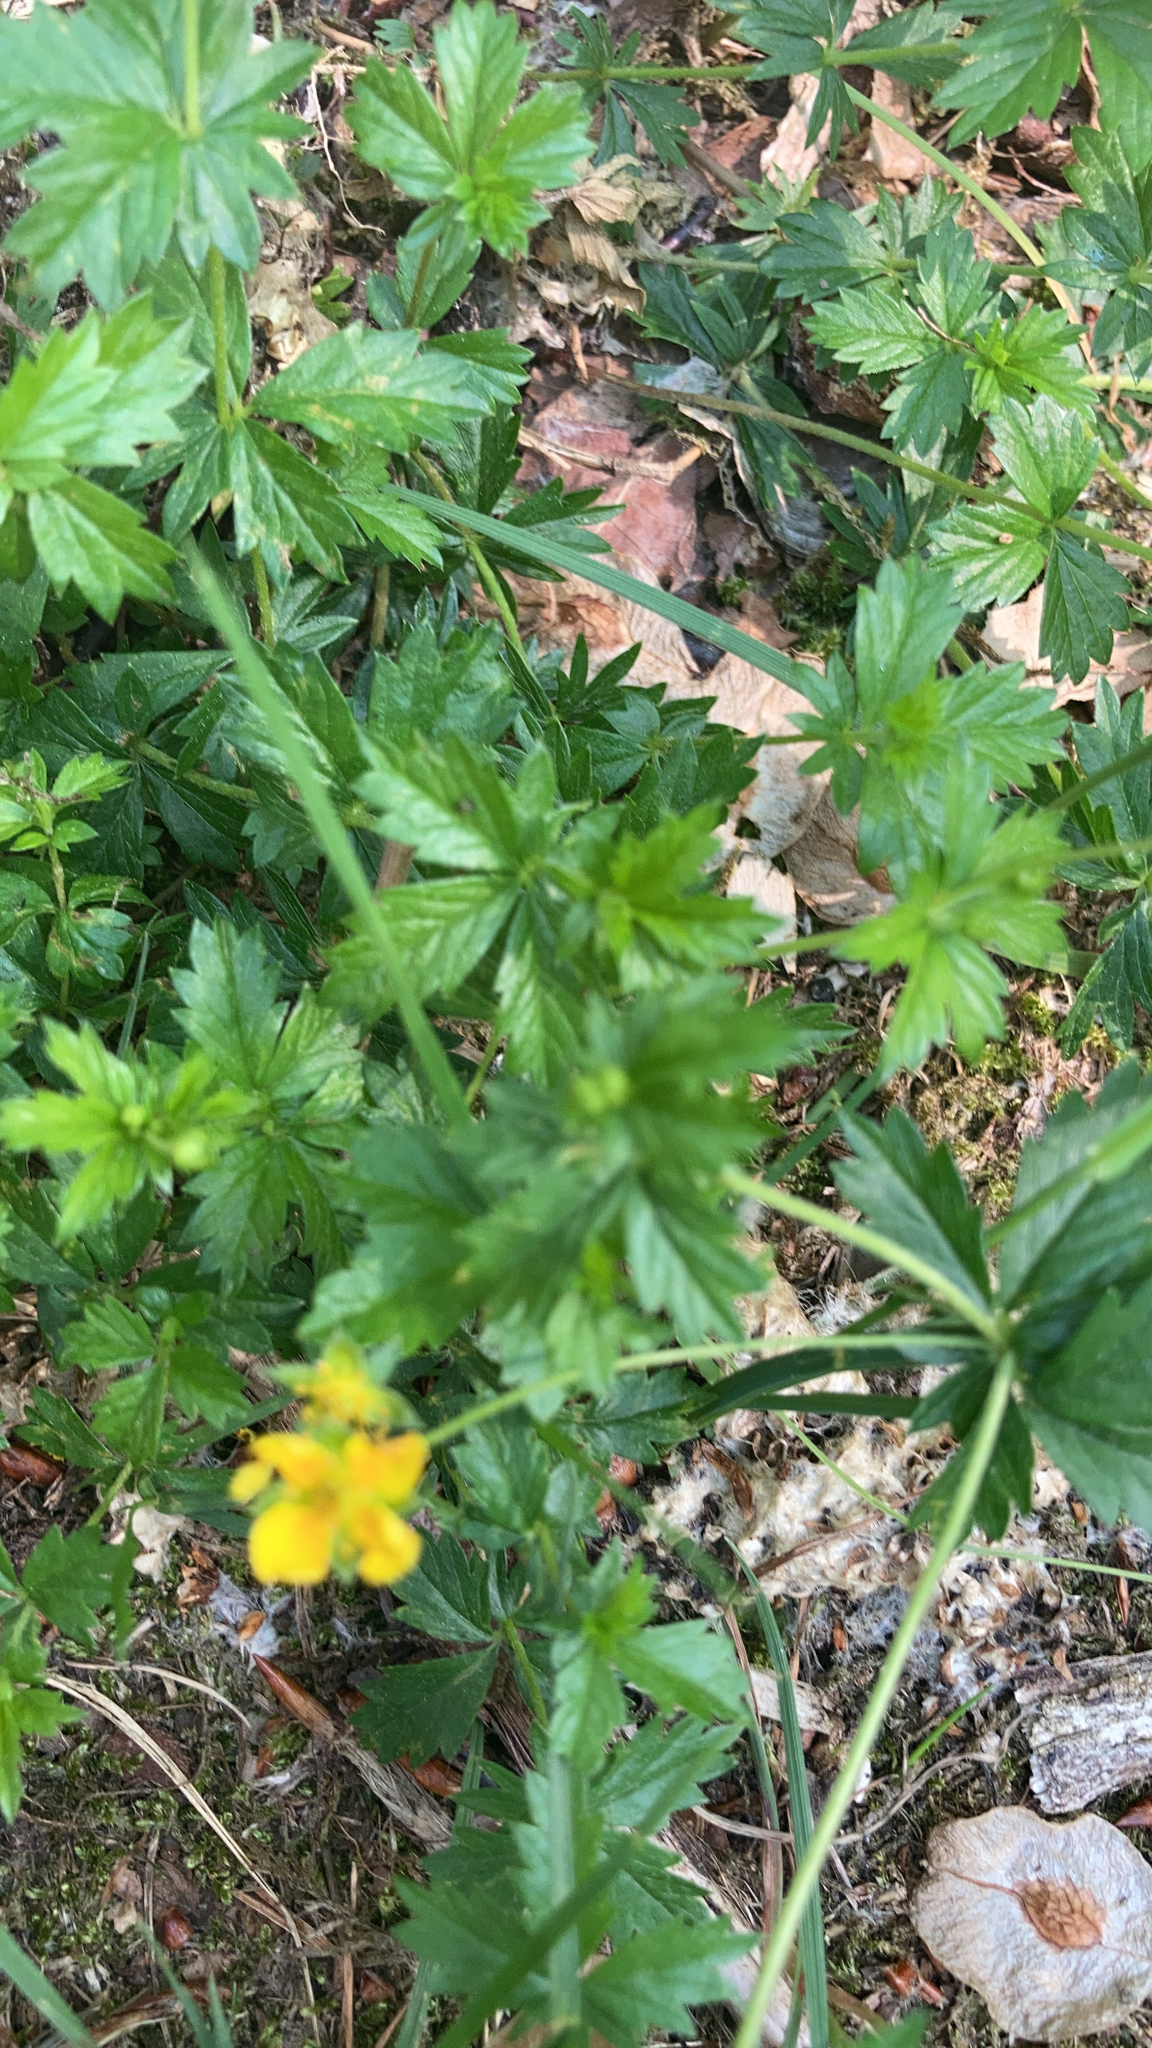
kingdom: Plantae
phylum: Tracheophyta
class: Magnoliopsida
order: Rosales
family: Rosaceae
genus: Potentilla
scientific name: Potentilla erecta
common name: Tormentil
